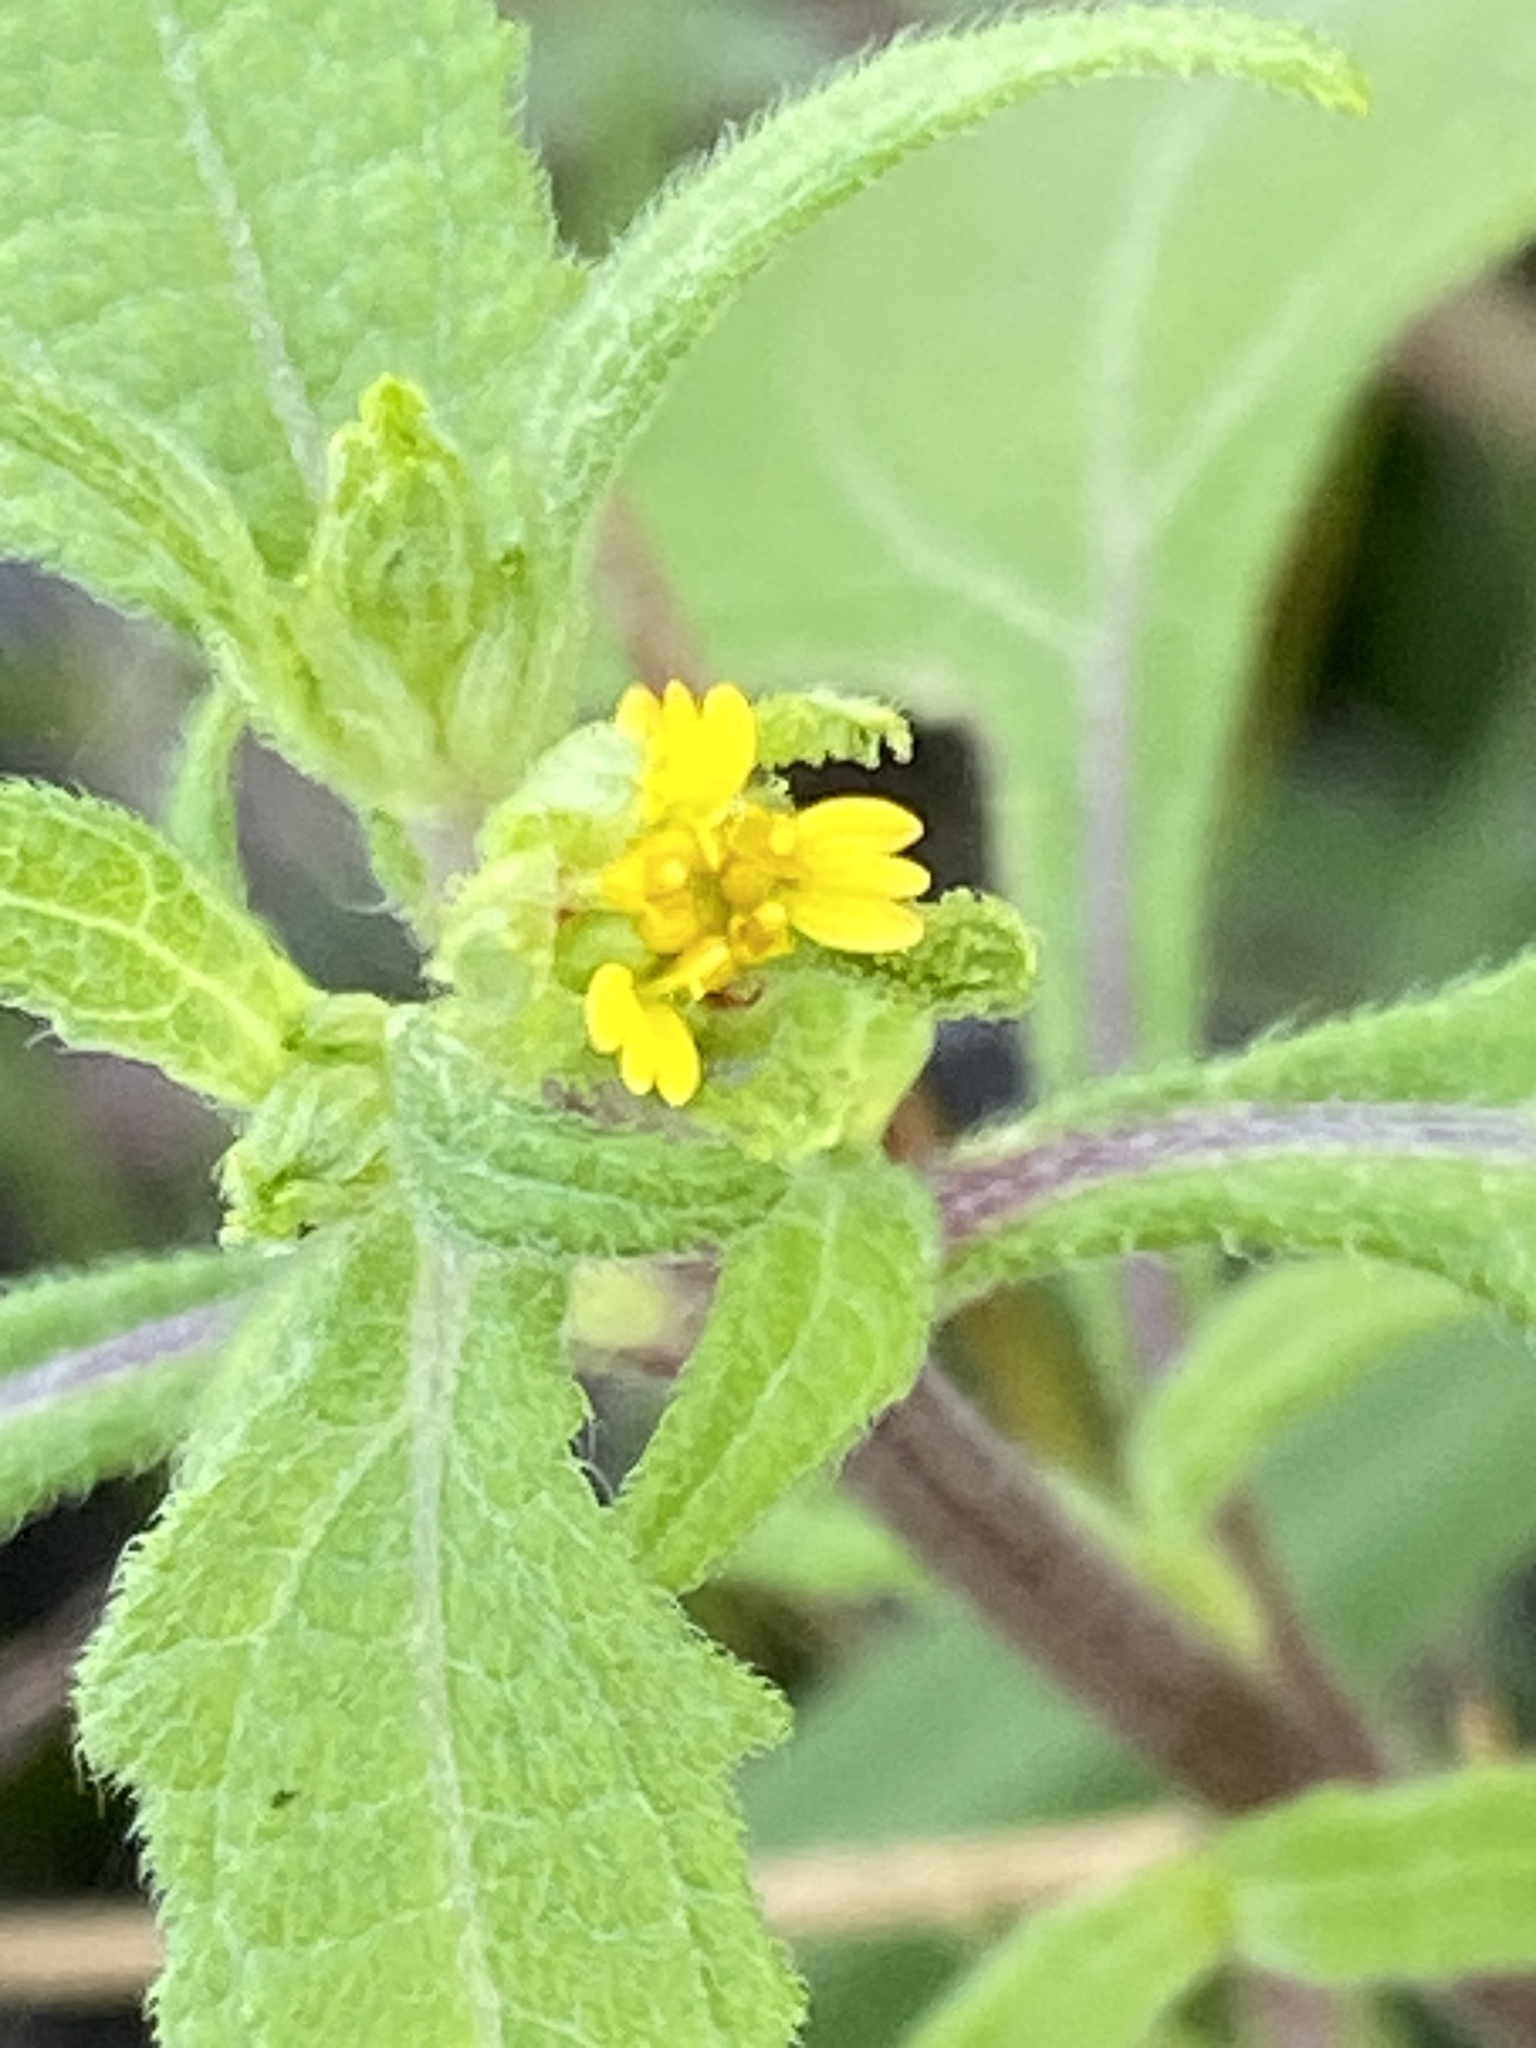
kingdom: Plantae
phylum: Tracheophyta
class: Magnoliopsida
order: Asterales
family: Asteraceae
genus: Sigesbeckia
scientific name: Sigesbeckia orientalis
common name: Eastern st paul's-wort
